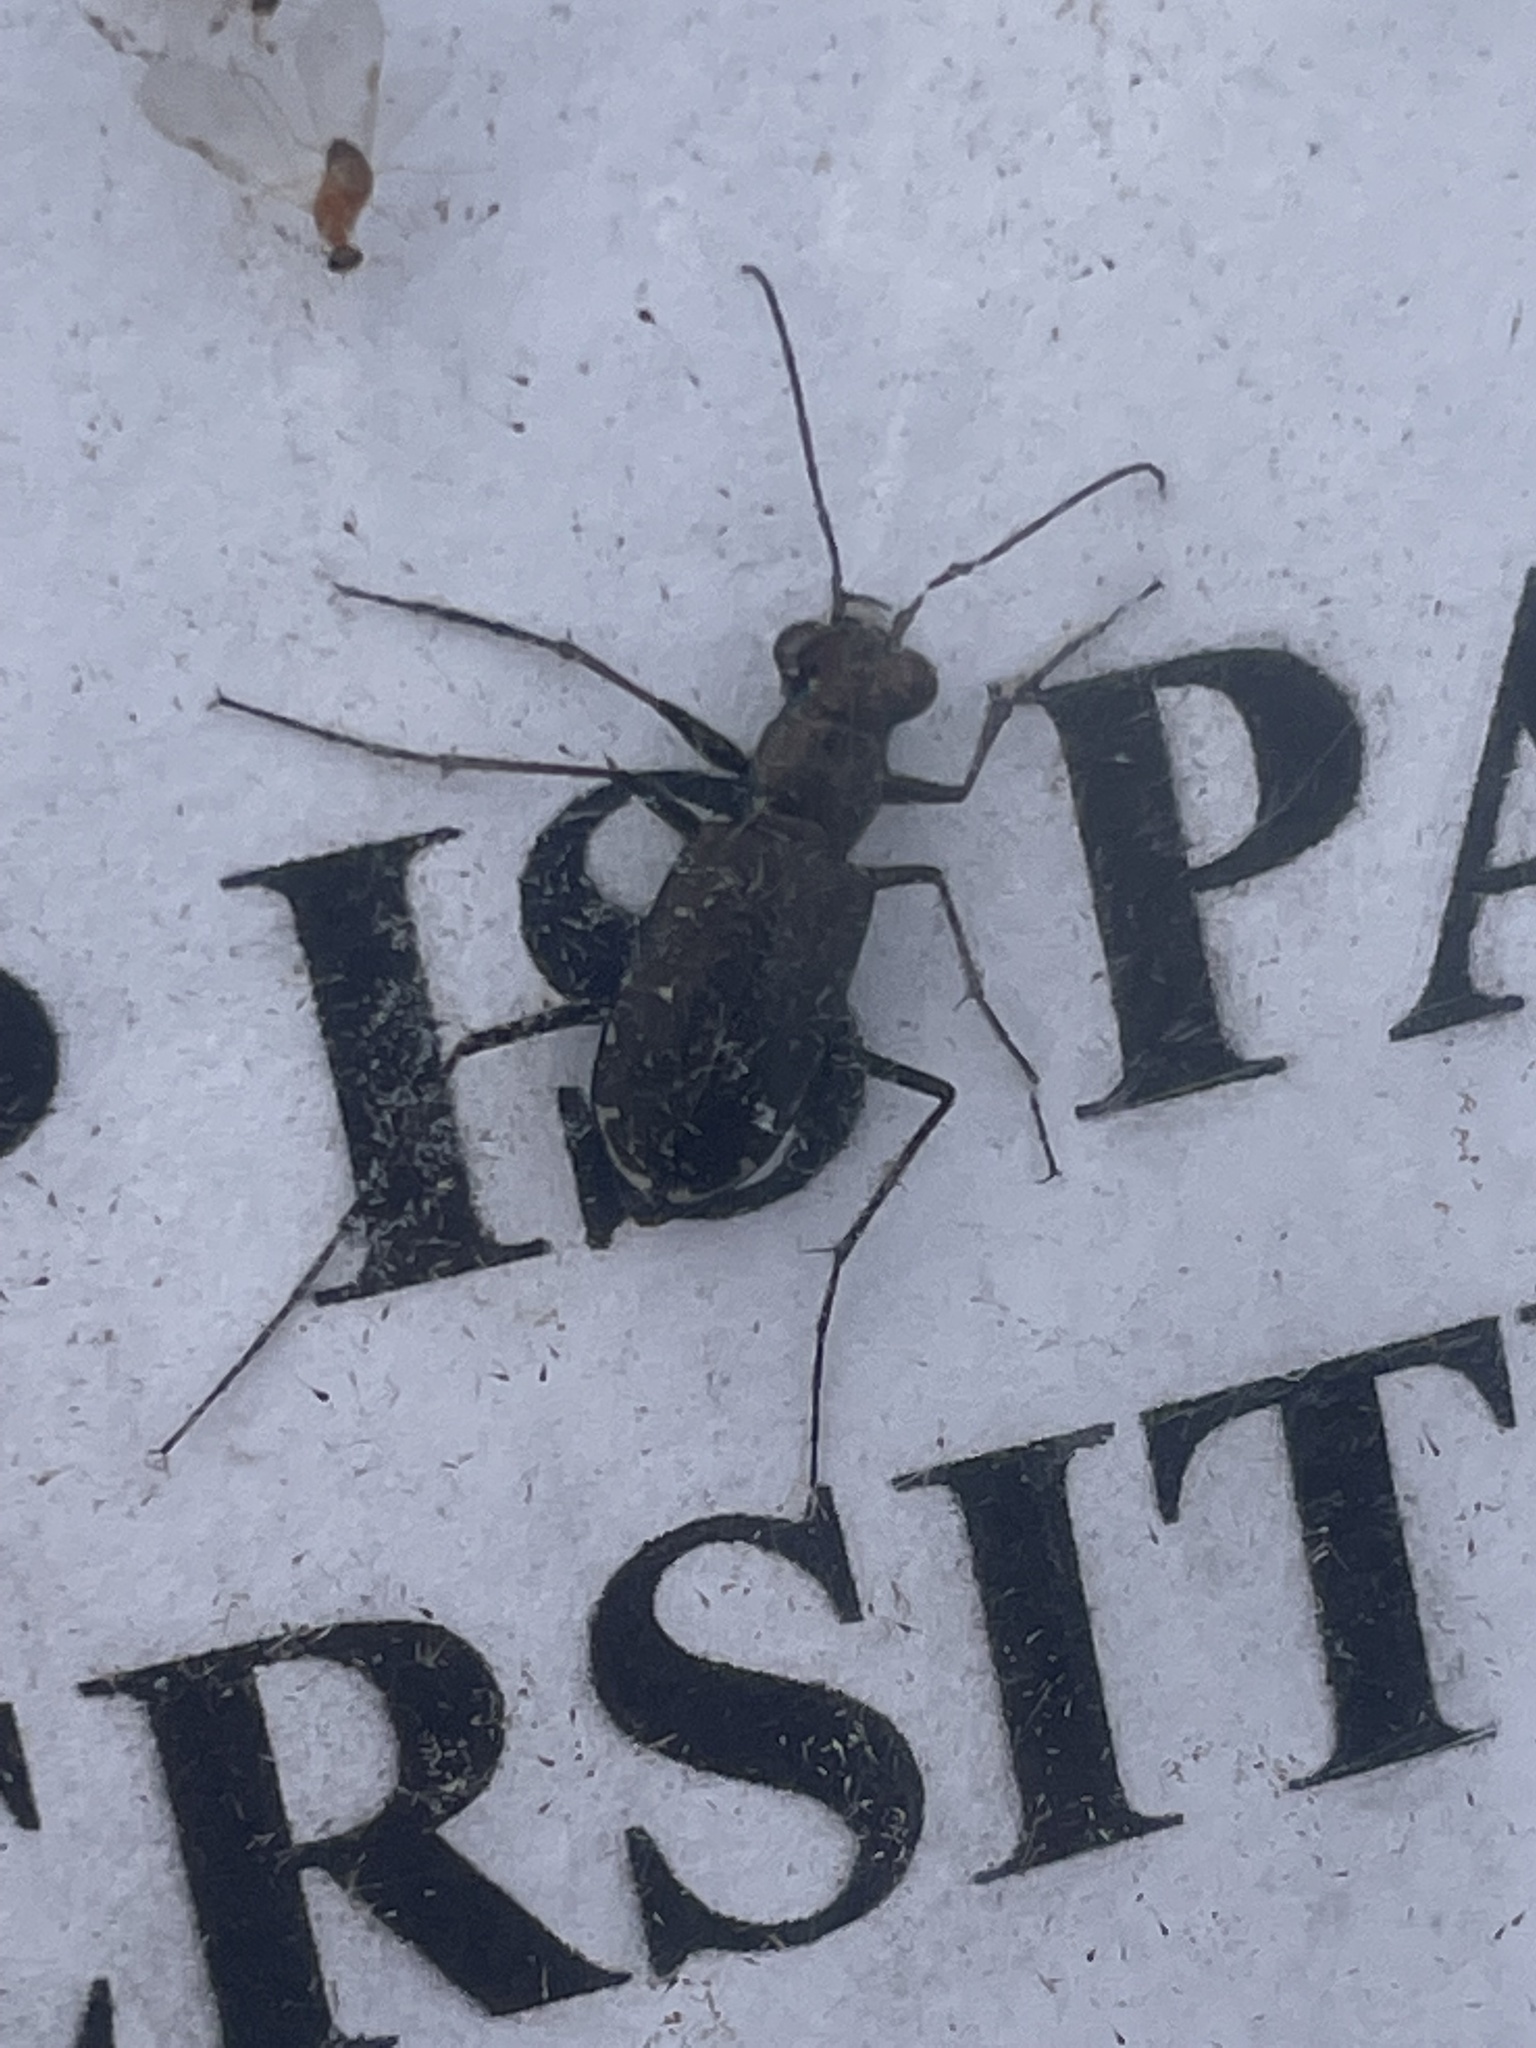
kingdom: Animalia
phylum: Arthropoda
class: Insecta
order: Coleoptera
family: Carabidae
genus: Cicindela
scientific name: Cicindela punctulata
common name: Punctured tiger beetle
